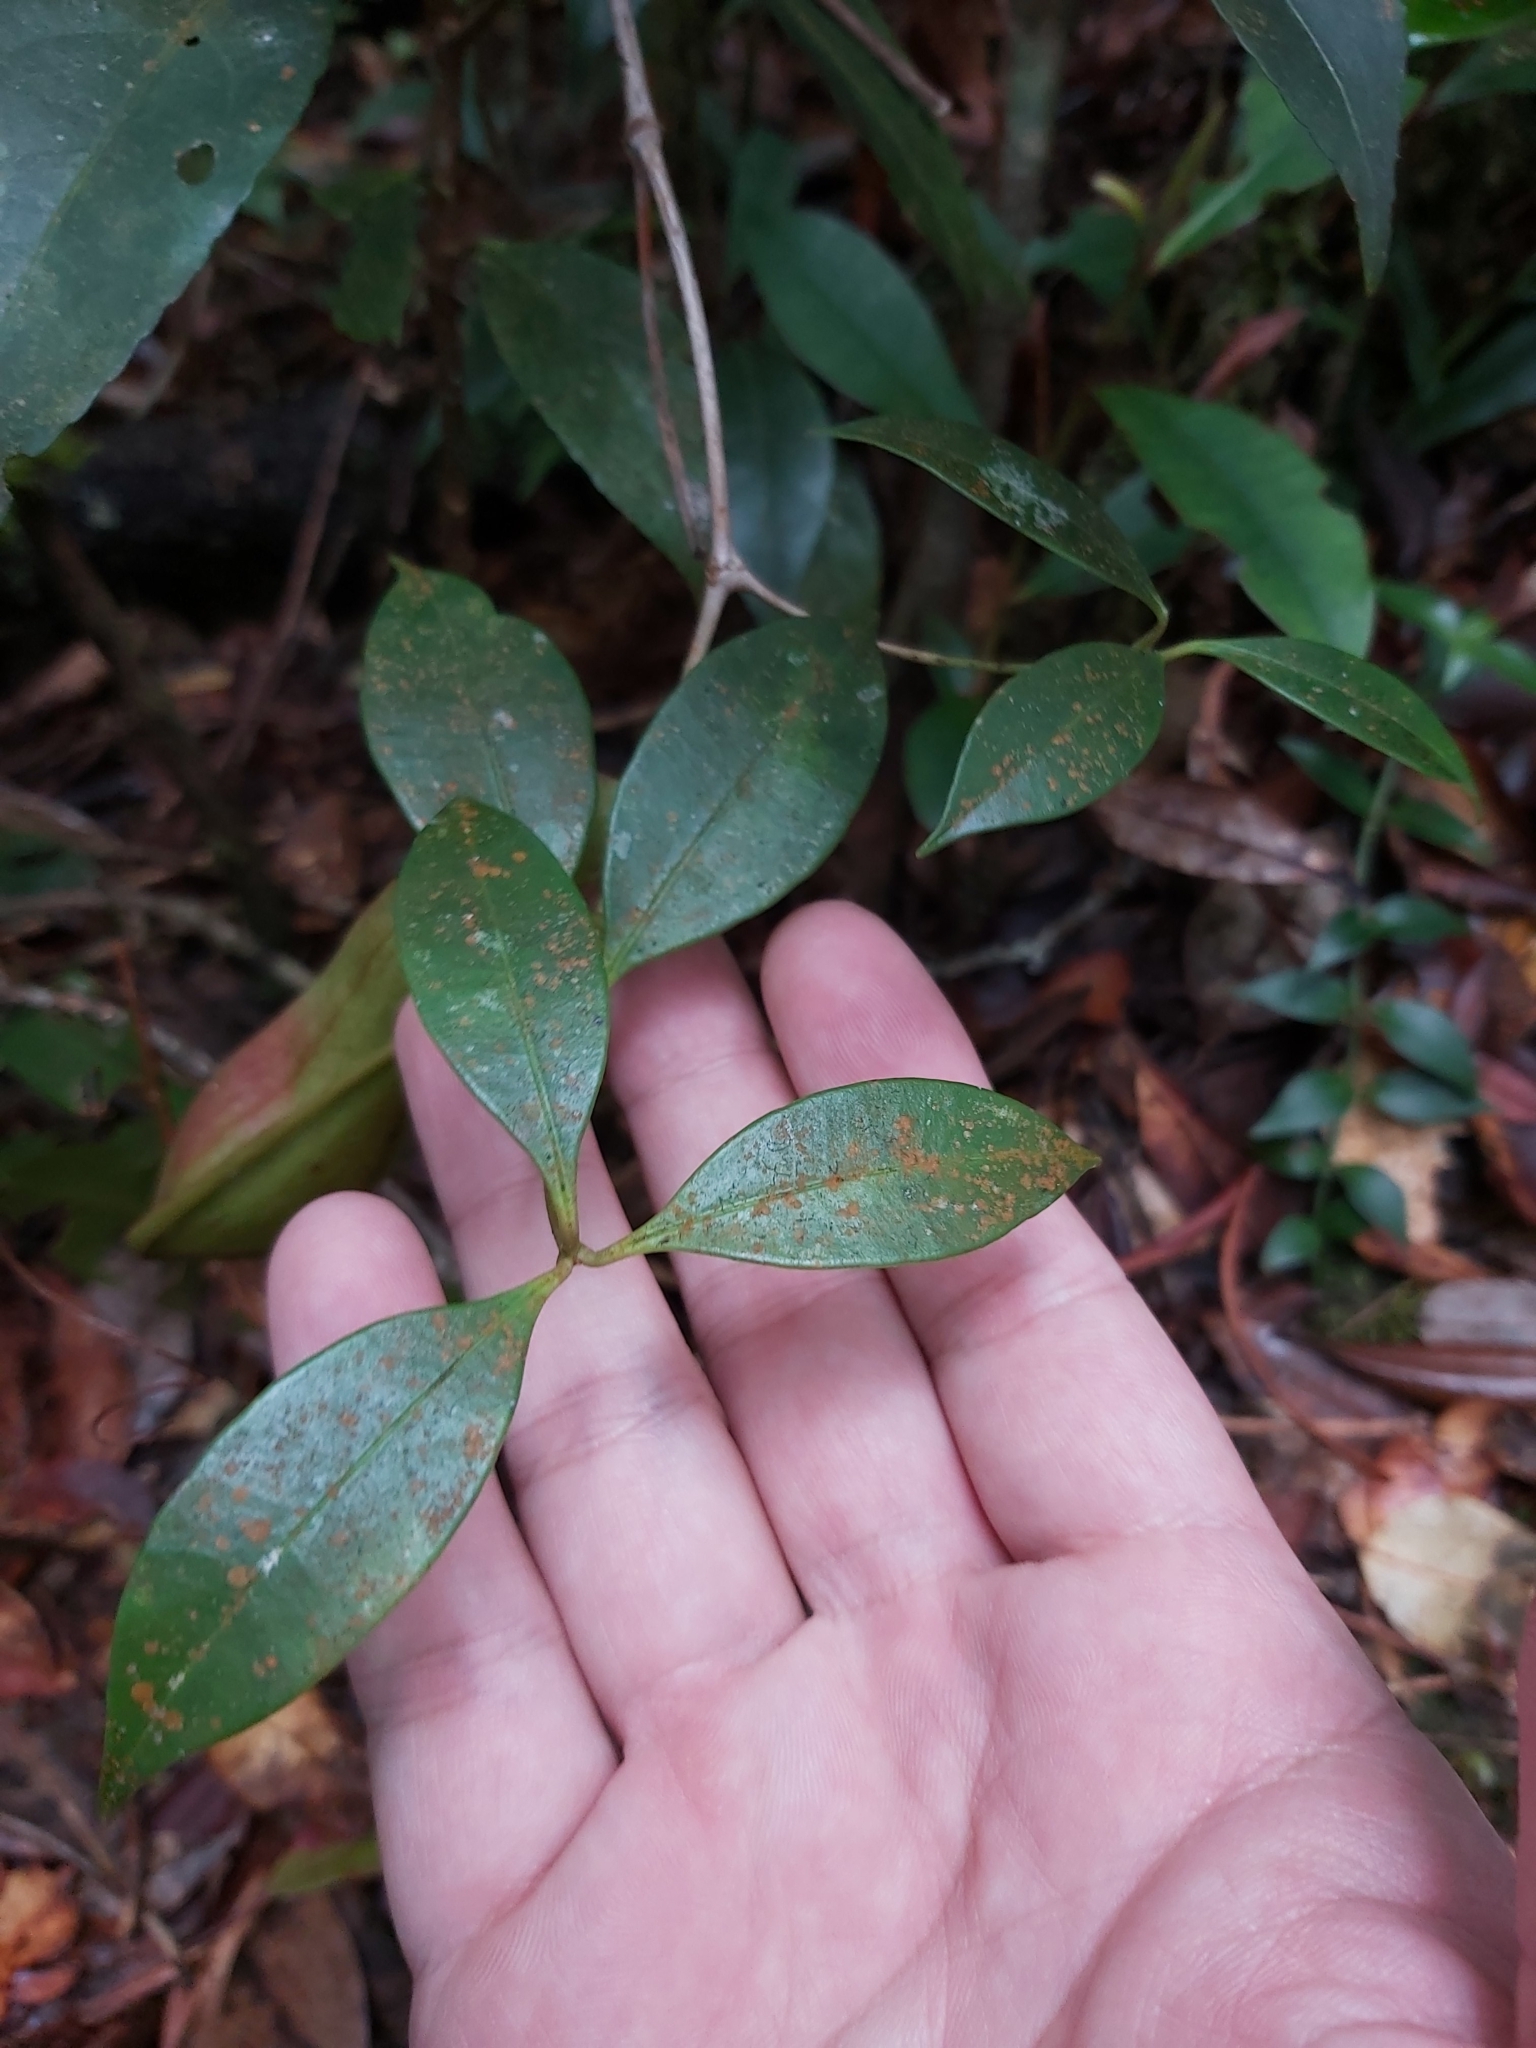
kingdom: Plantae
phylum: Tracheophyta
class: Magnoliopsida
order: Caryophyllales
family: Nepenthaceae
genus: Nepenthes
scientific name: Nepenthes tentaculata
